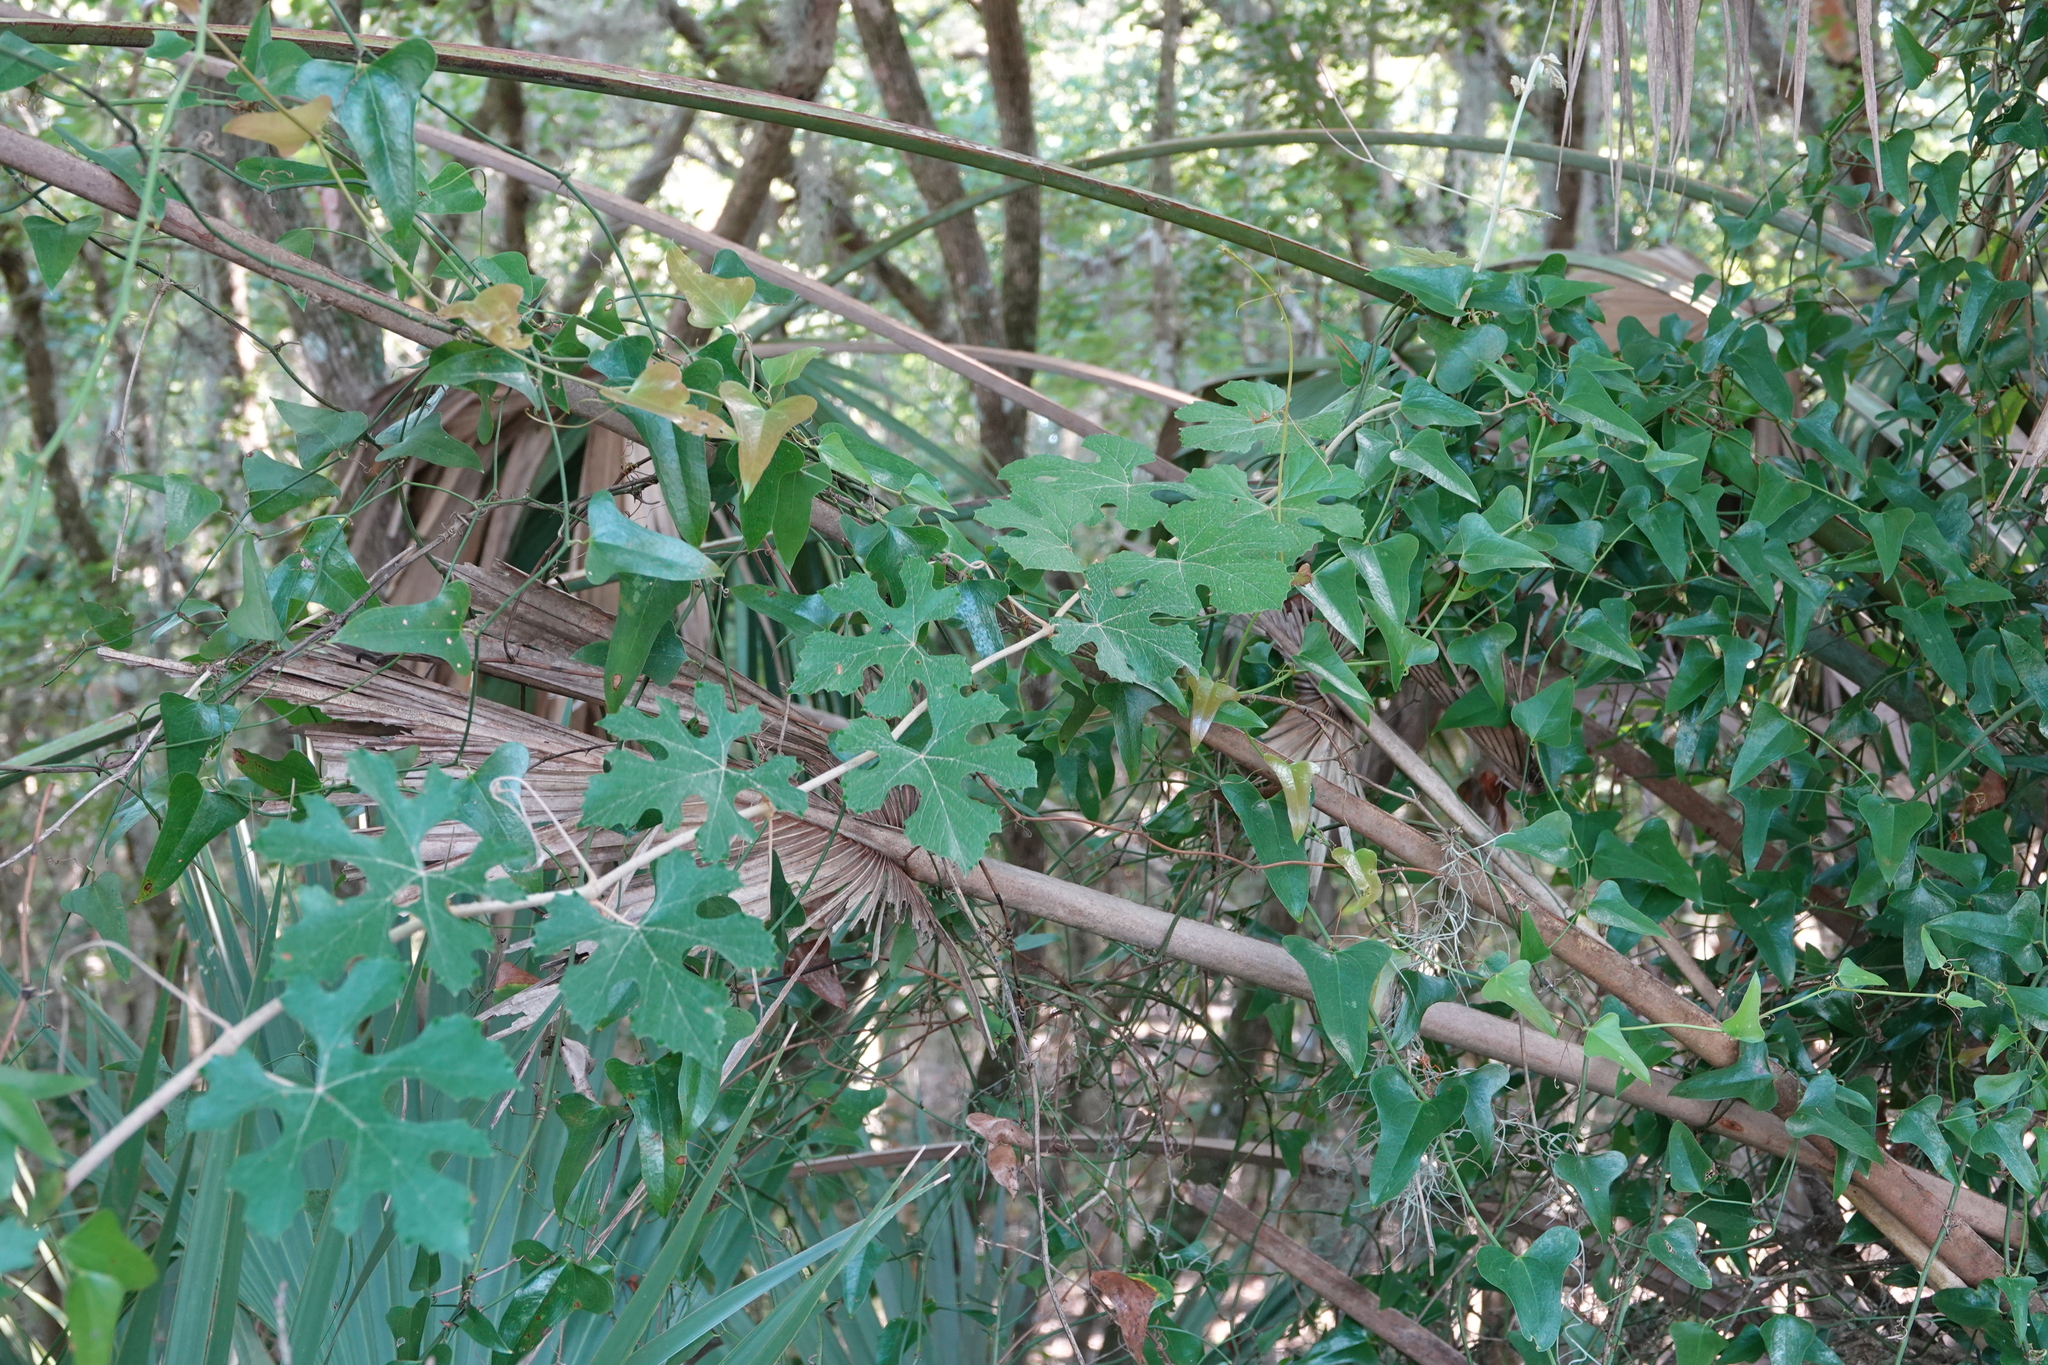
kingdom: Plantae
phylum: Tracheophyta
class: Magnoliopsida
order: Vitales
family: Vitaceae
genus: Vitis
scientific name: Vitis aestivalis
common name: Pigeon grape
